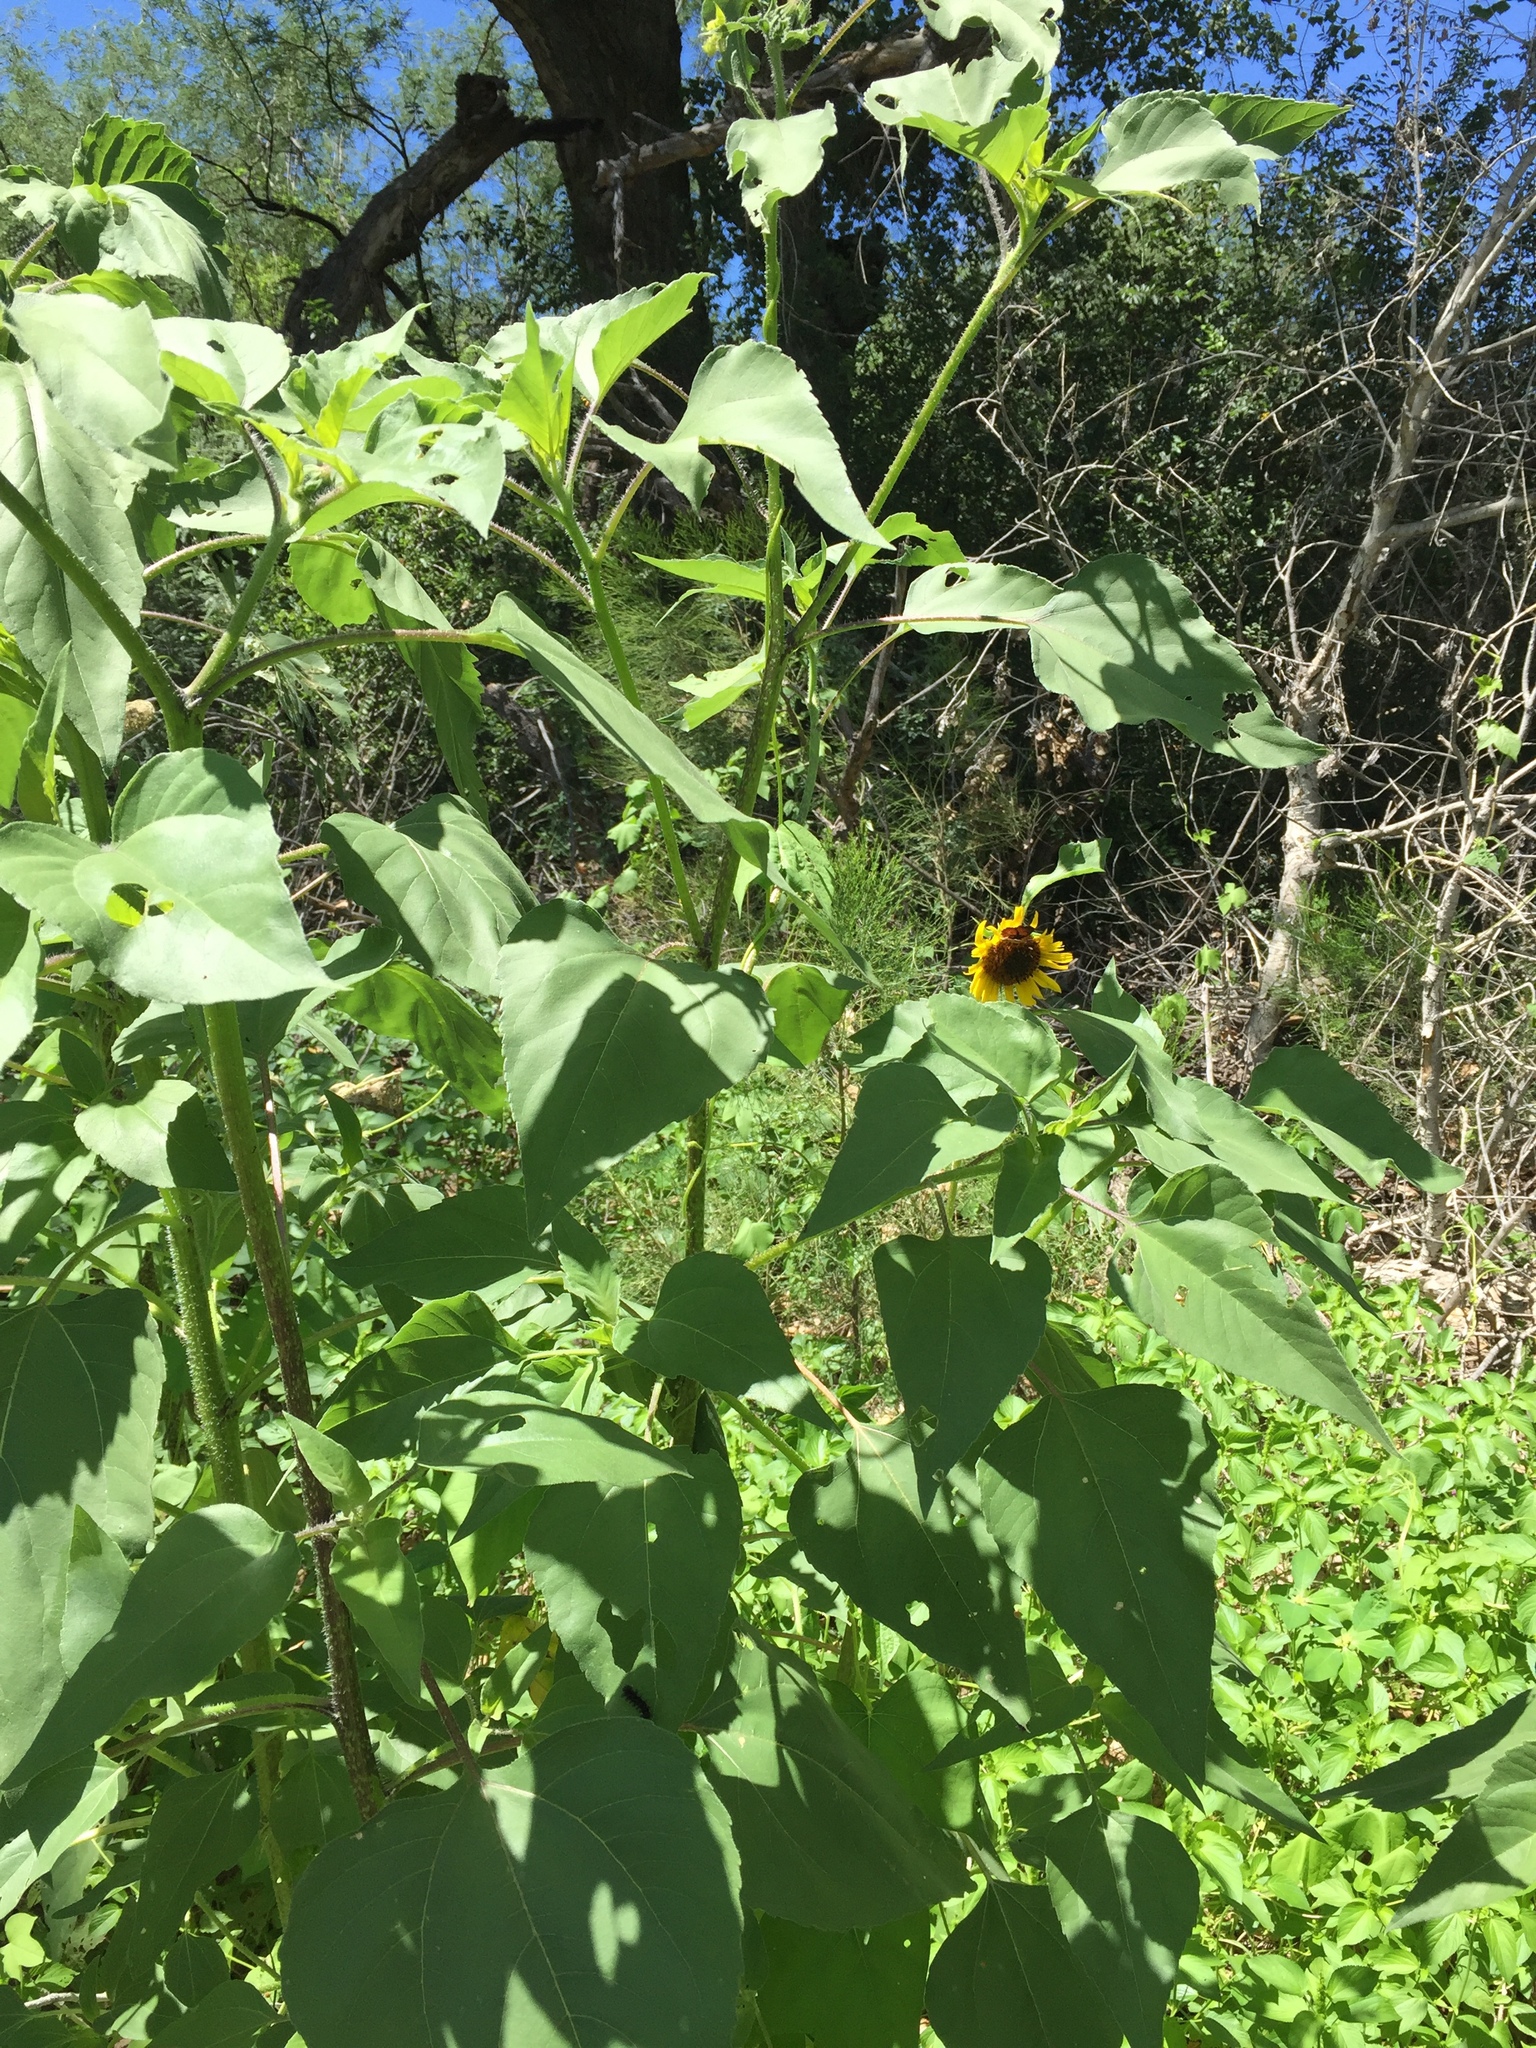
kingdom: Plantae
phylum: Tracheophyta
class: Magnoliopsida
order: Asterales
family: Asteraceae
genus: Helianthus
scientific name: Helianthus annuus
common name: Sunflower
